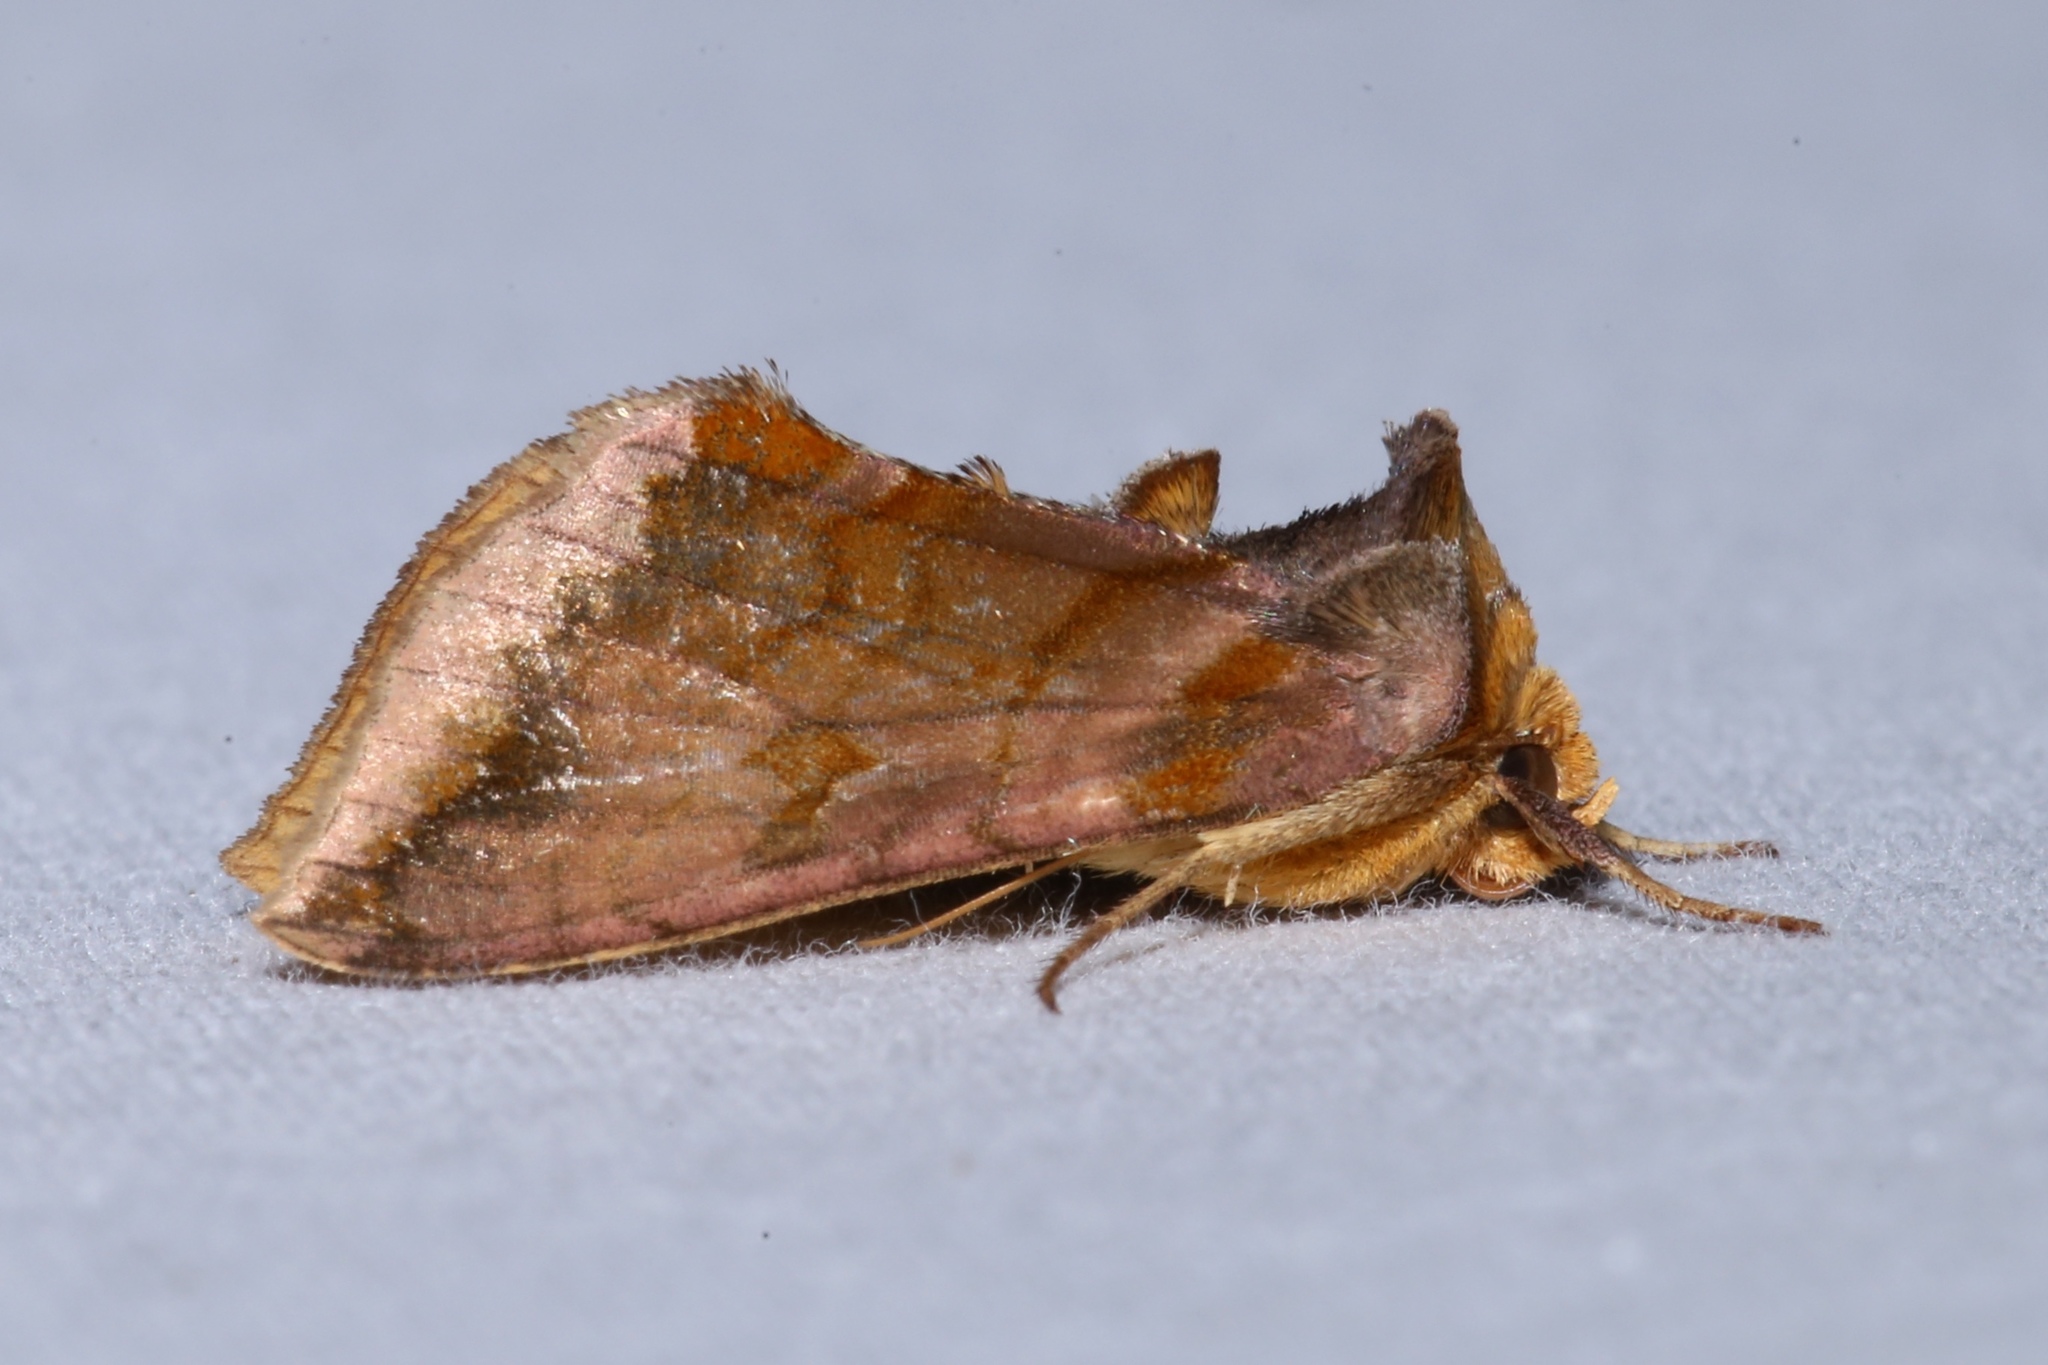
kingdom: Animalia
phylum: Arthropoda
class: Insecta
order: Lepidoptera
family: Noctuidae
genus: Allagrapha
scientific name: Allagrapha aerea
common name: Unspotted looper moth
